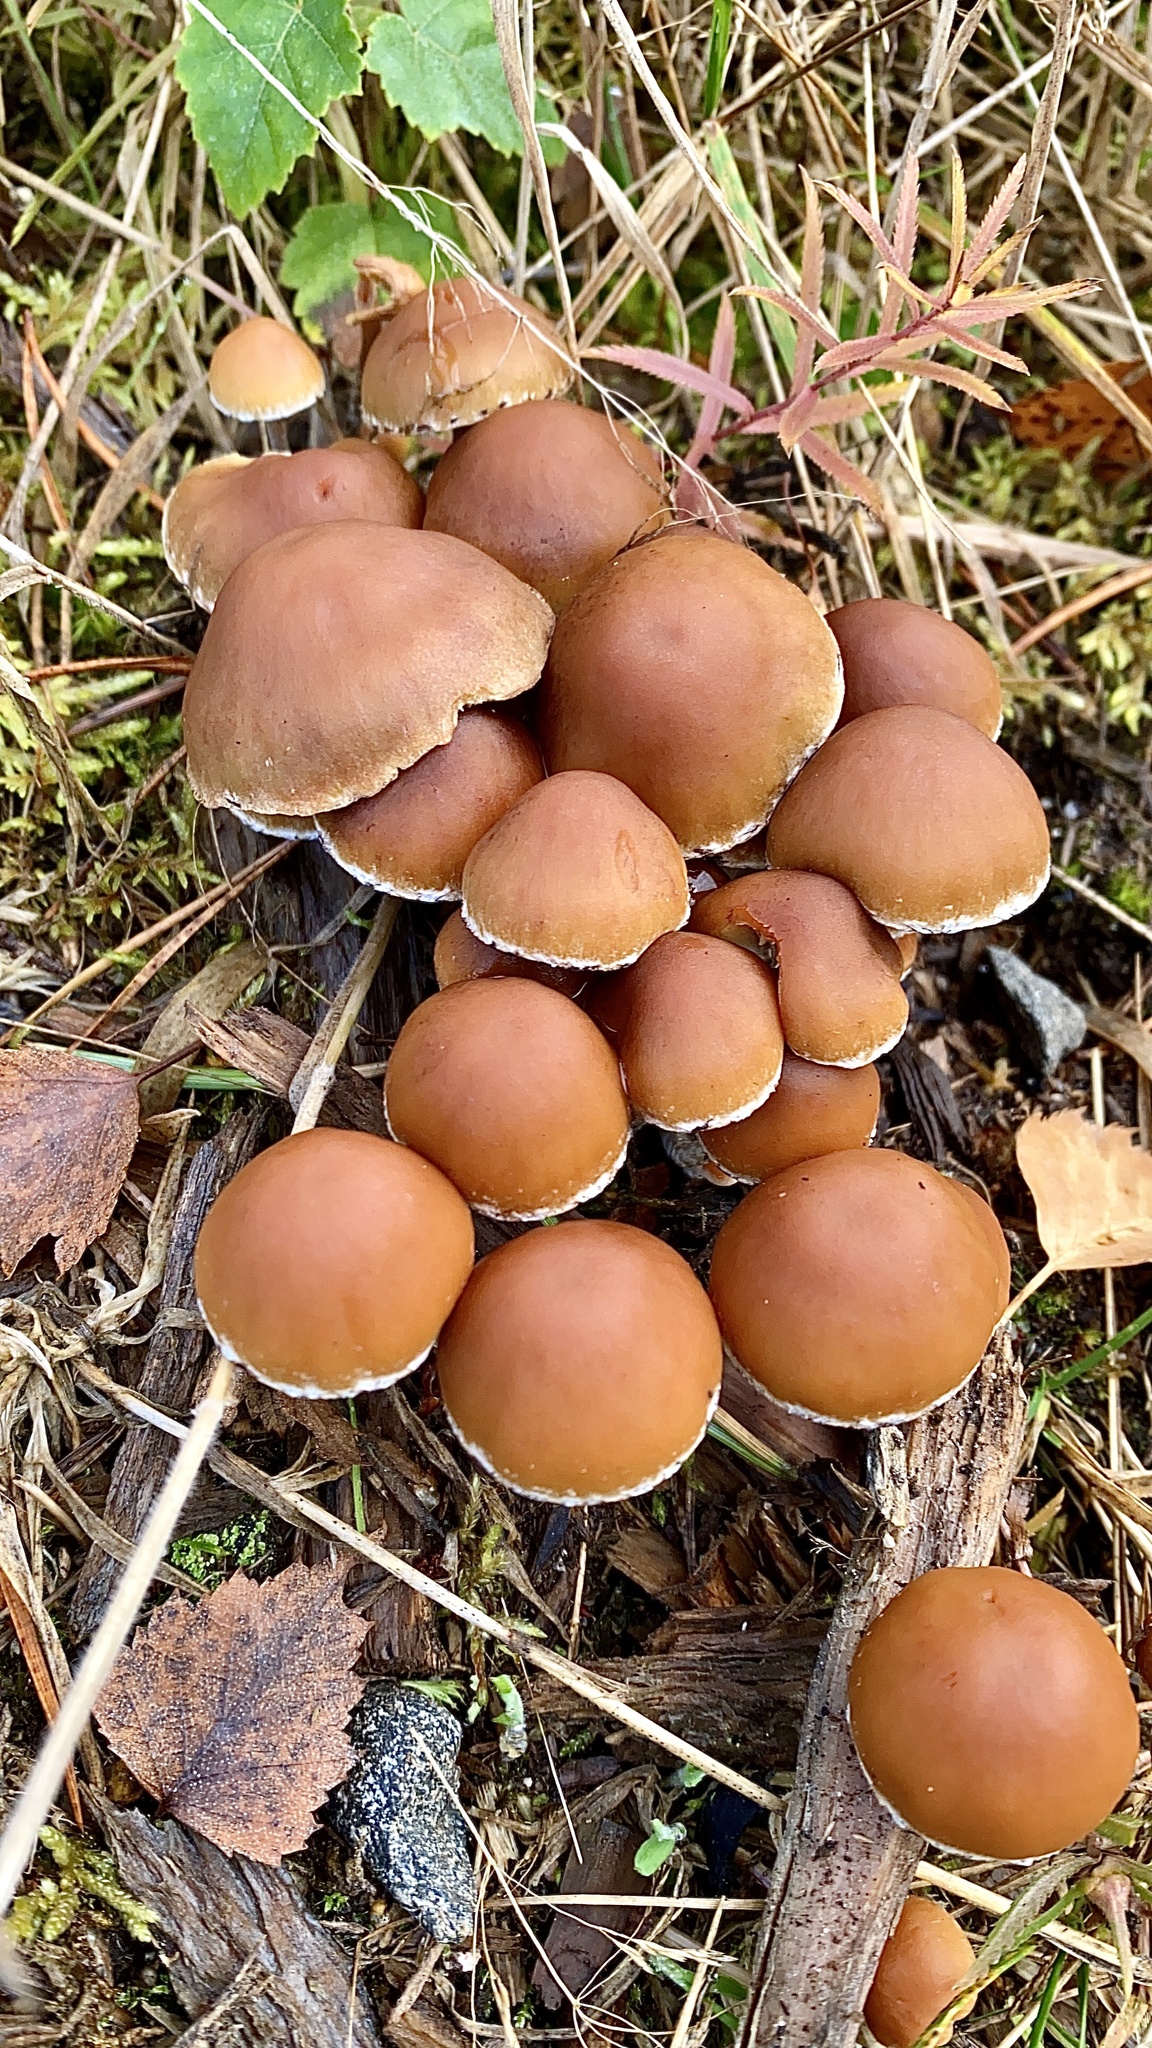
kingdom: Fungi
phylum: Basidiomycota
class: Agaricomycetes
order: Agaricales
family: Psathyrellaceae
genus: Psathyrella
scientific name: Psathyrella piluliformis
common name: Common stump brittlestem
